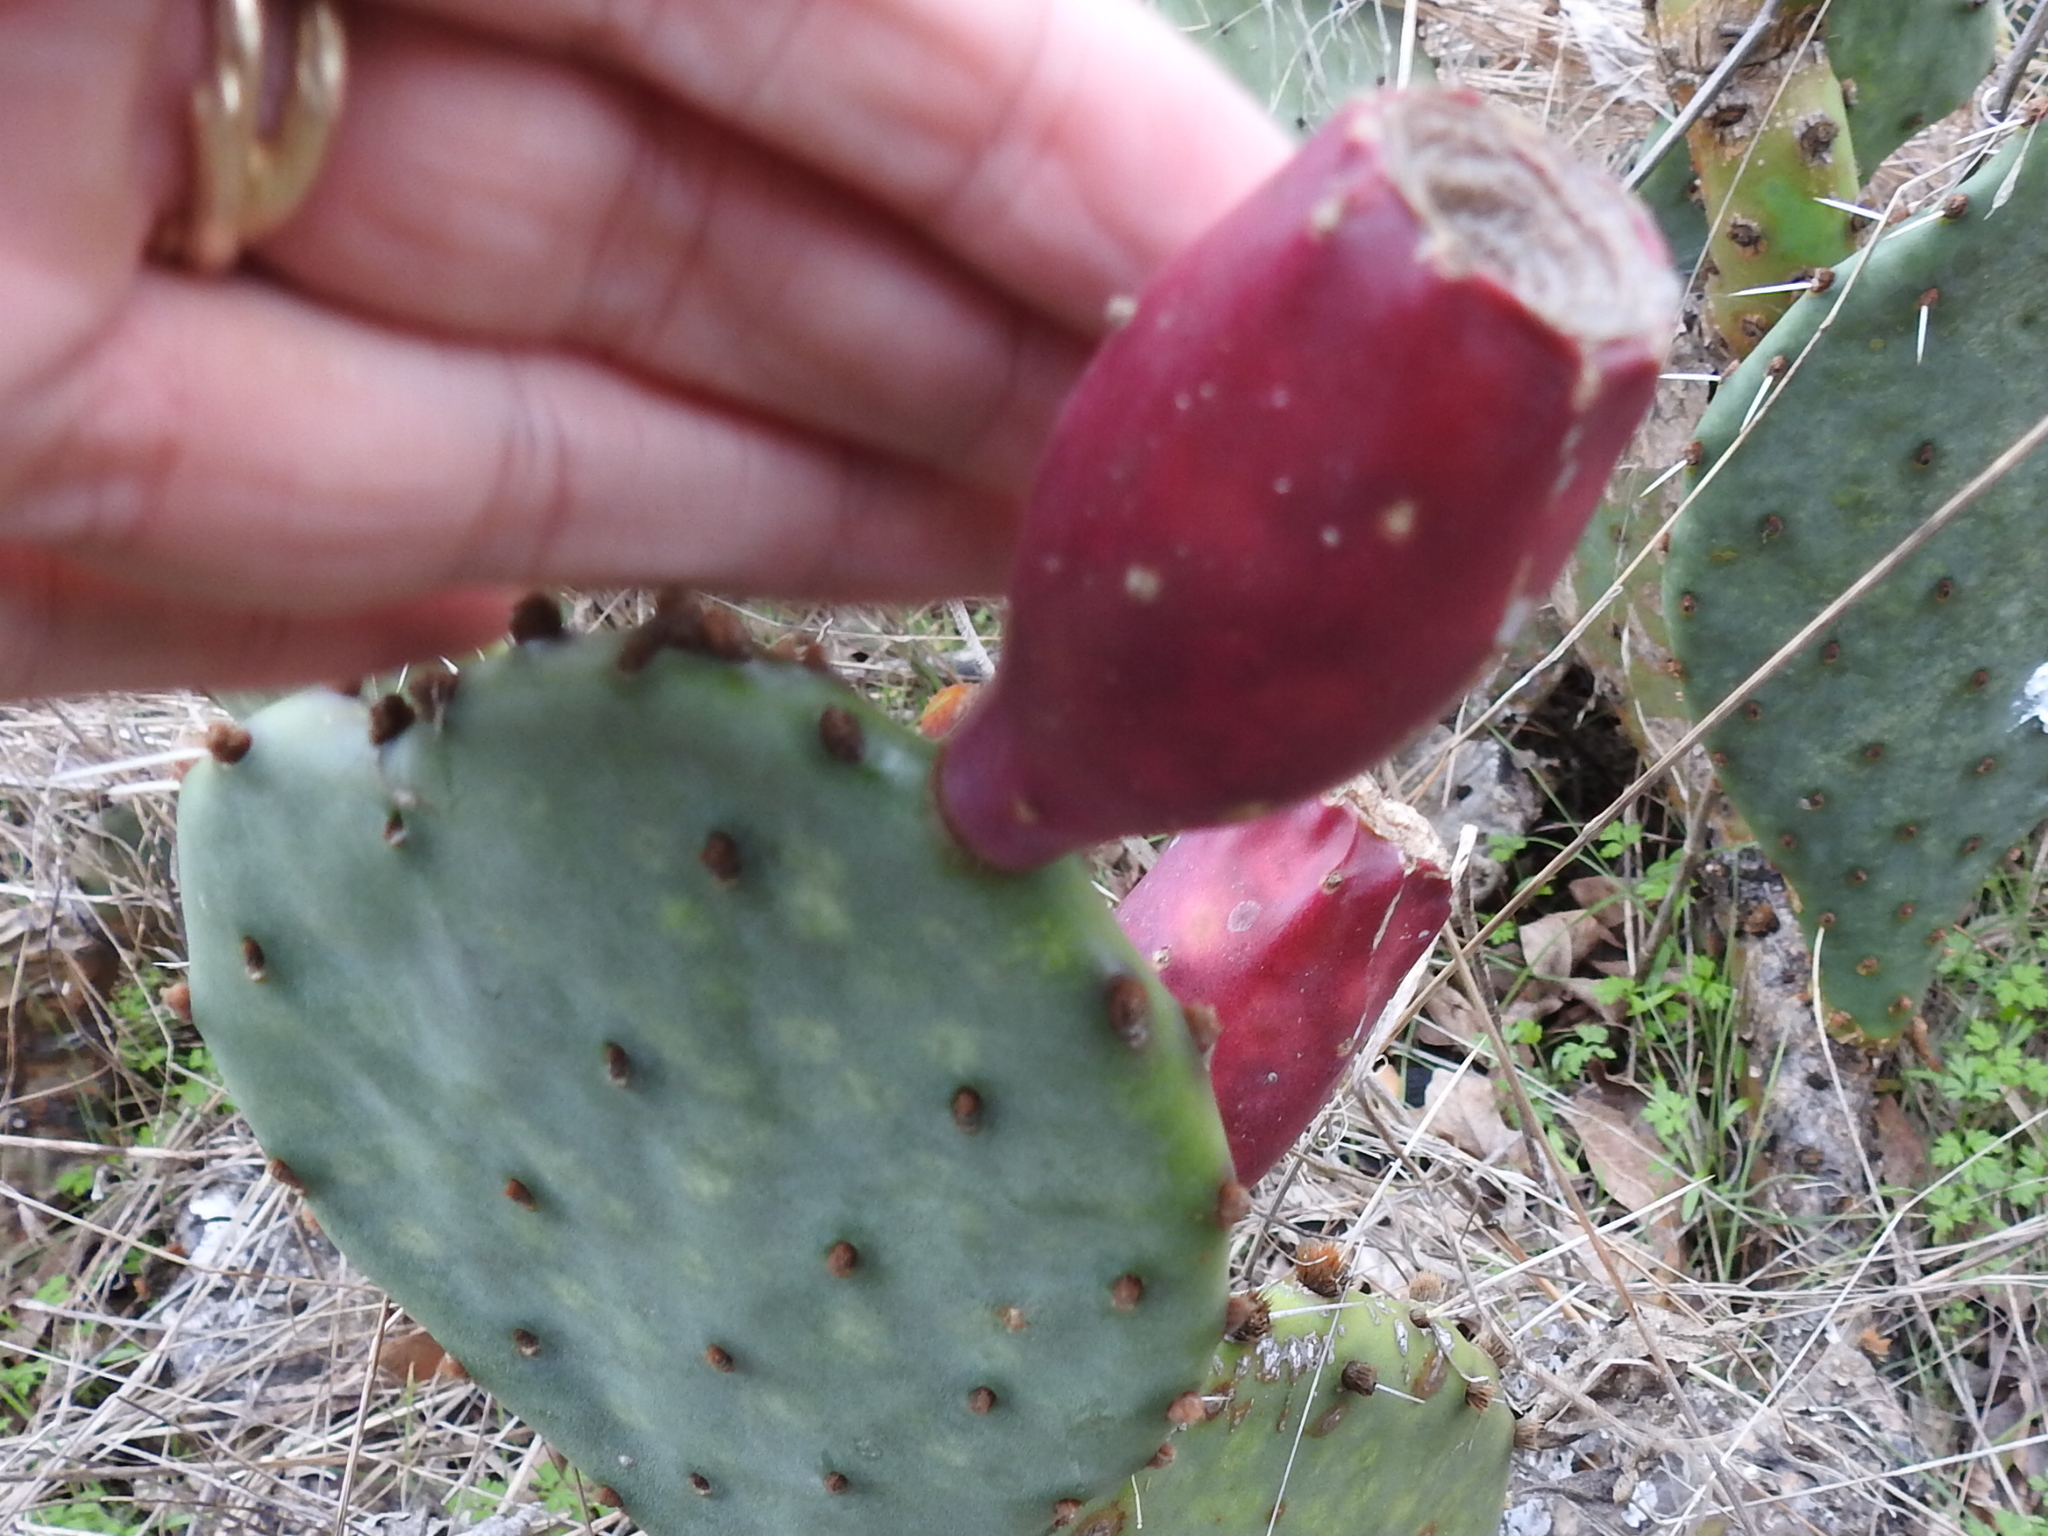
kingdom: Plantae
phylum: Tracheophyta
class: Magnoliopsida
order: Caryophyllales
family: Cactaceae
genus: Opuntia
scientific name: Opuntia phaeacantha
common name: New mexico prickly-pear
